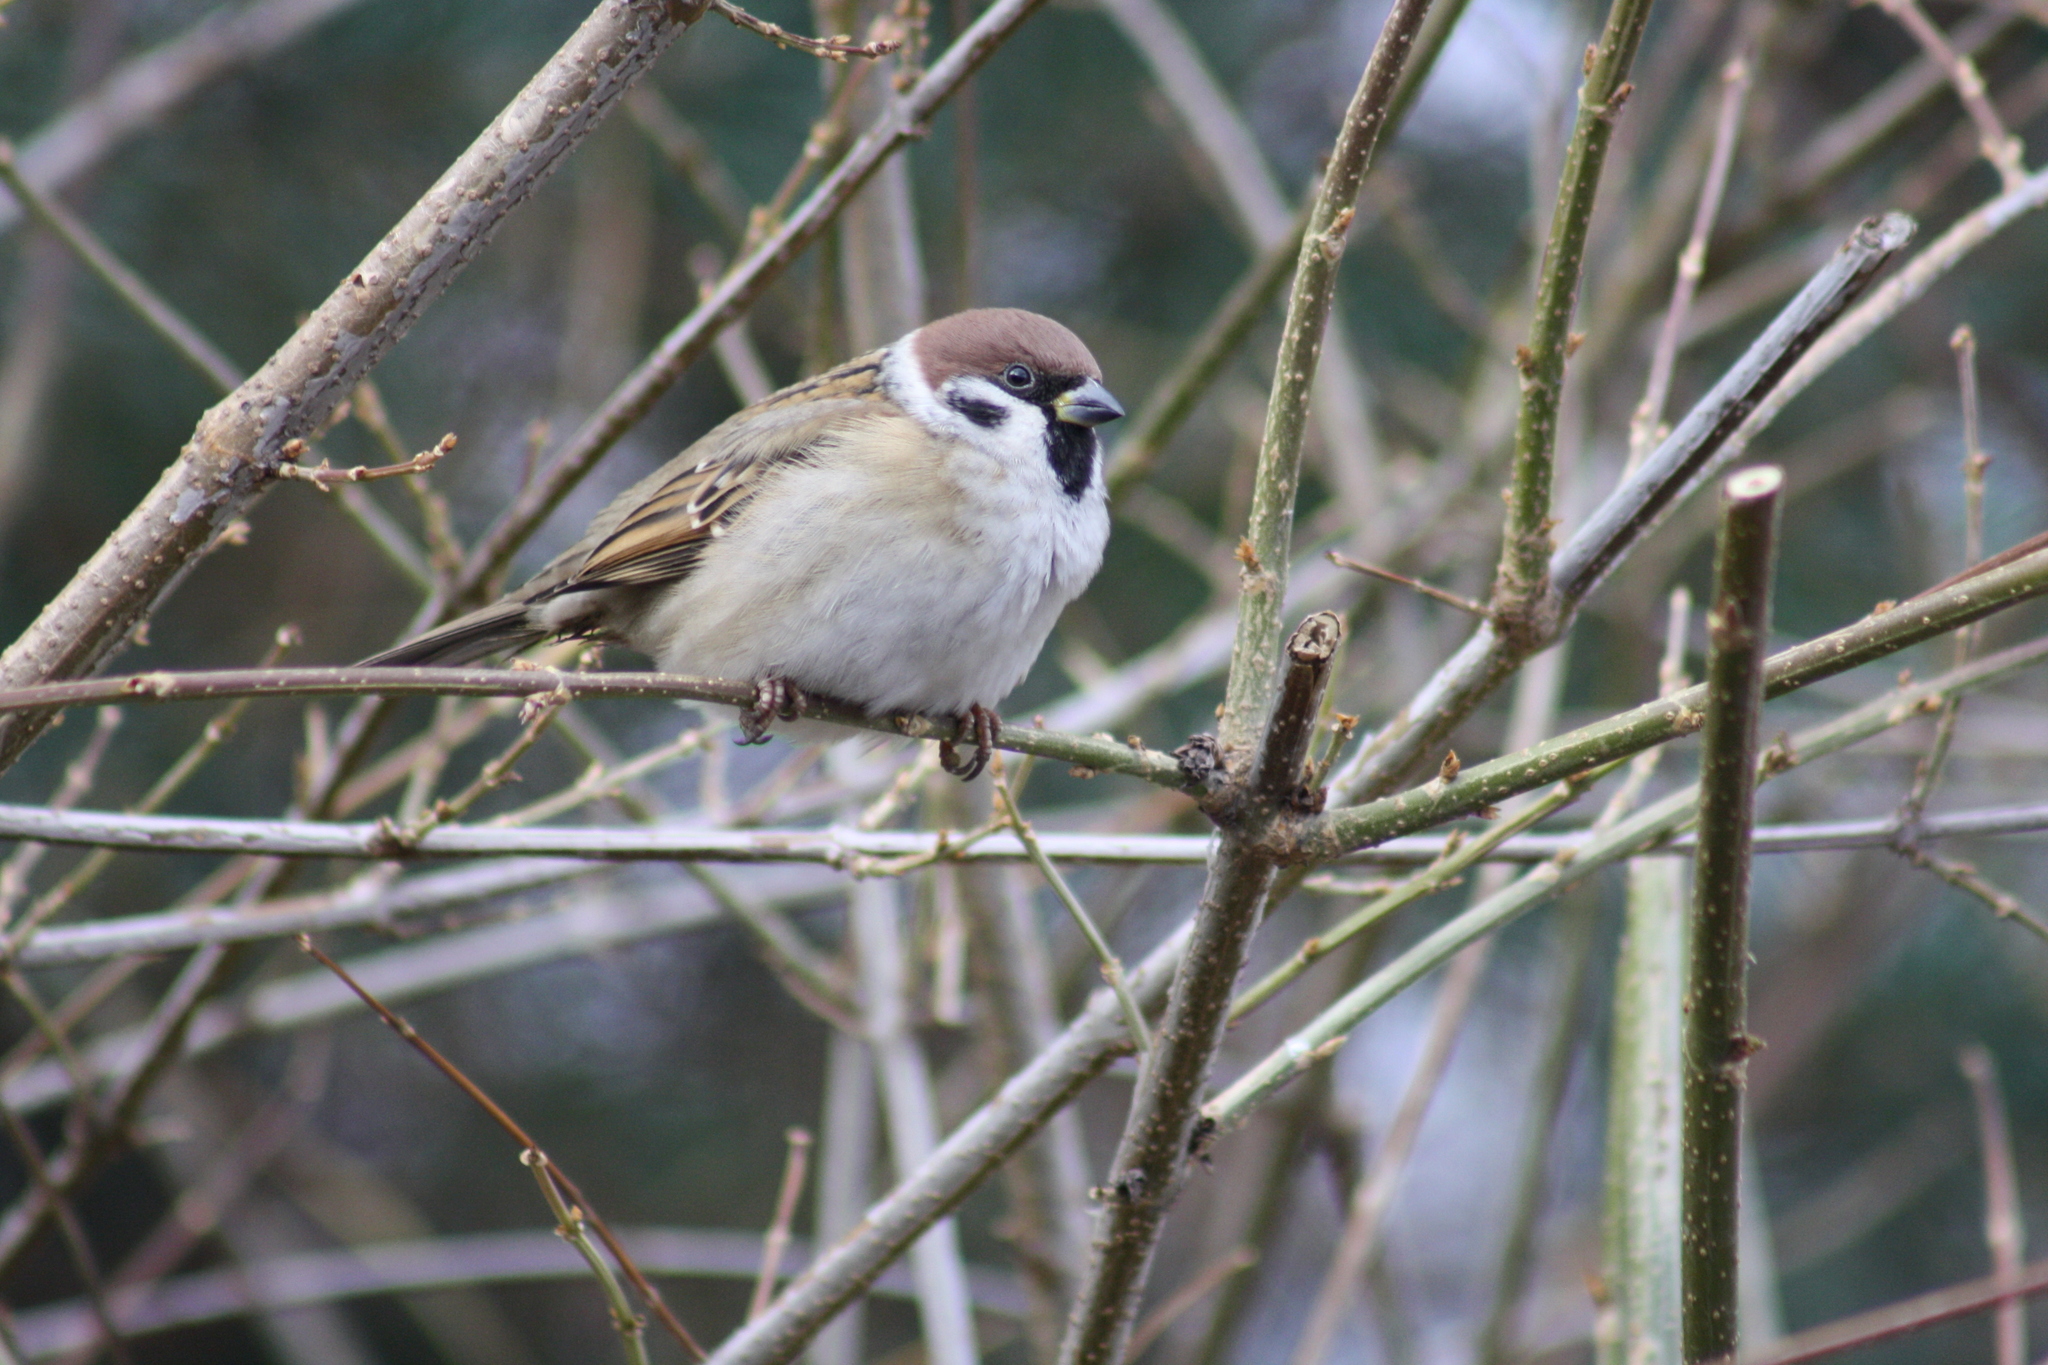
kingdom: Animalia
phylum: Chordata
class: Aves
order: Passeriformes
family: Passeridae
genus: Passer
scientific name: Passer montanus
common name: Eurasian tree sparrow
